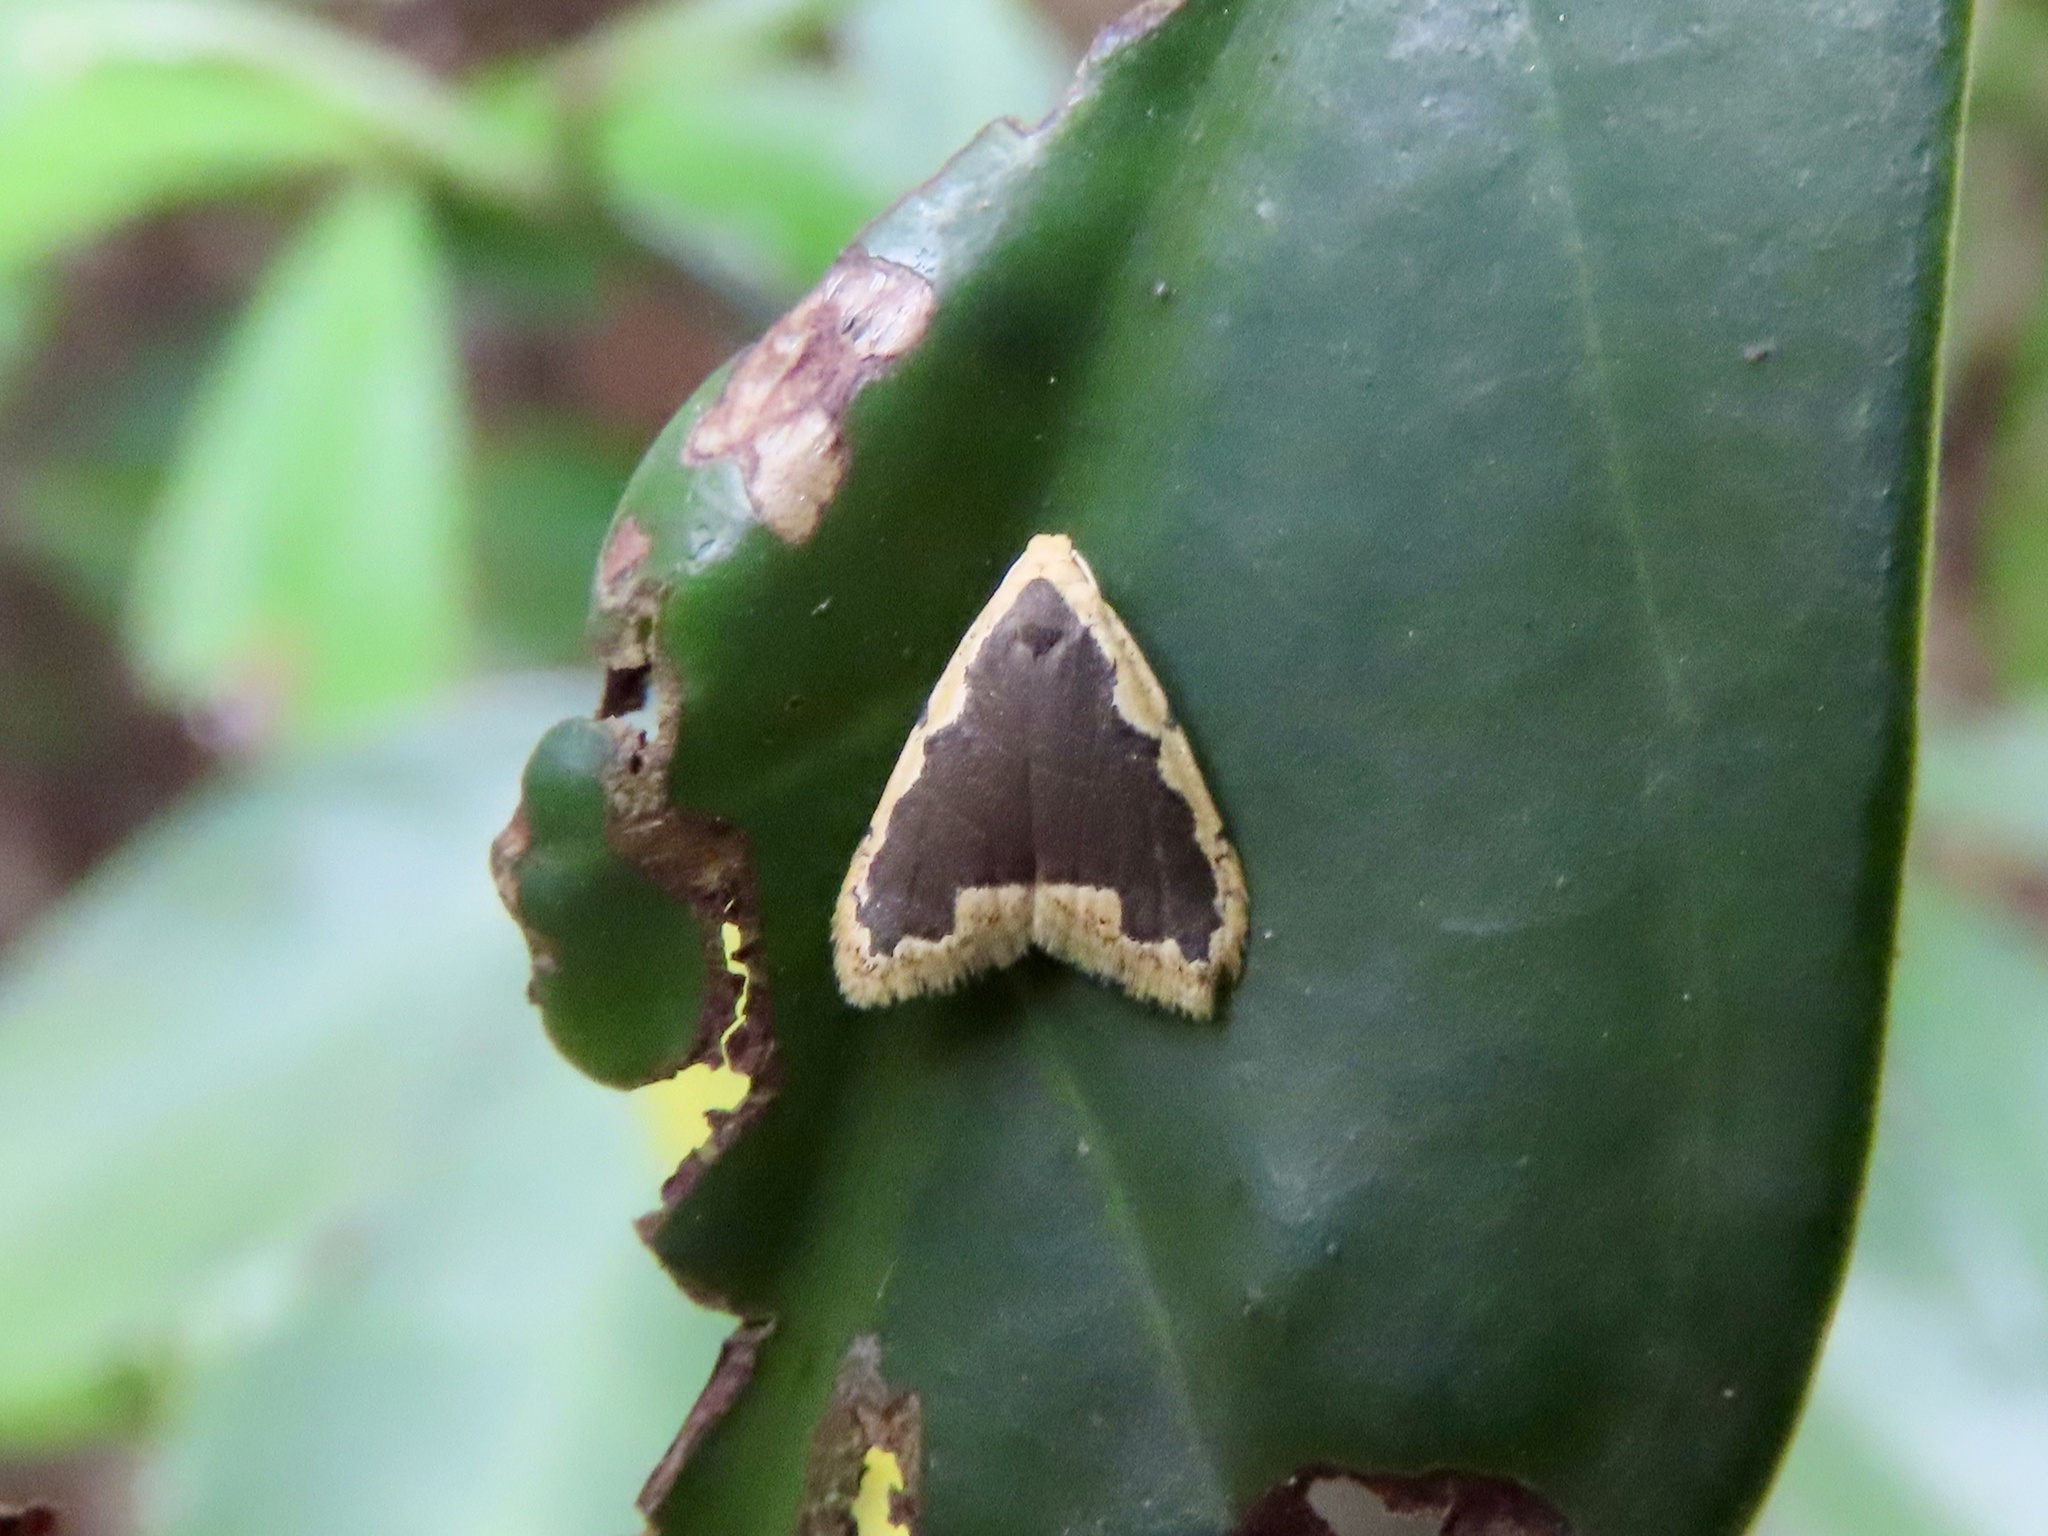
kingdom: Animalia
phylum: Arthropoda
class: Insecta
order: Lepidoptera
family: Erebidae
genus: Diduga
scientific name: Diduga flavicostata
